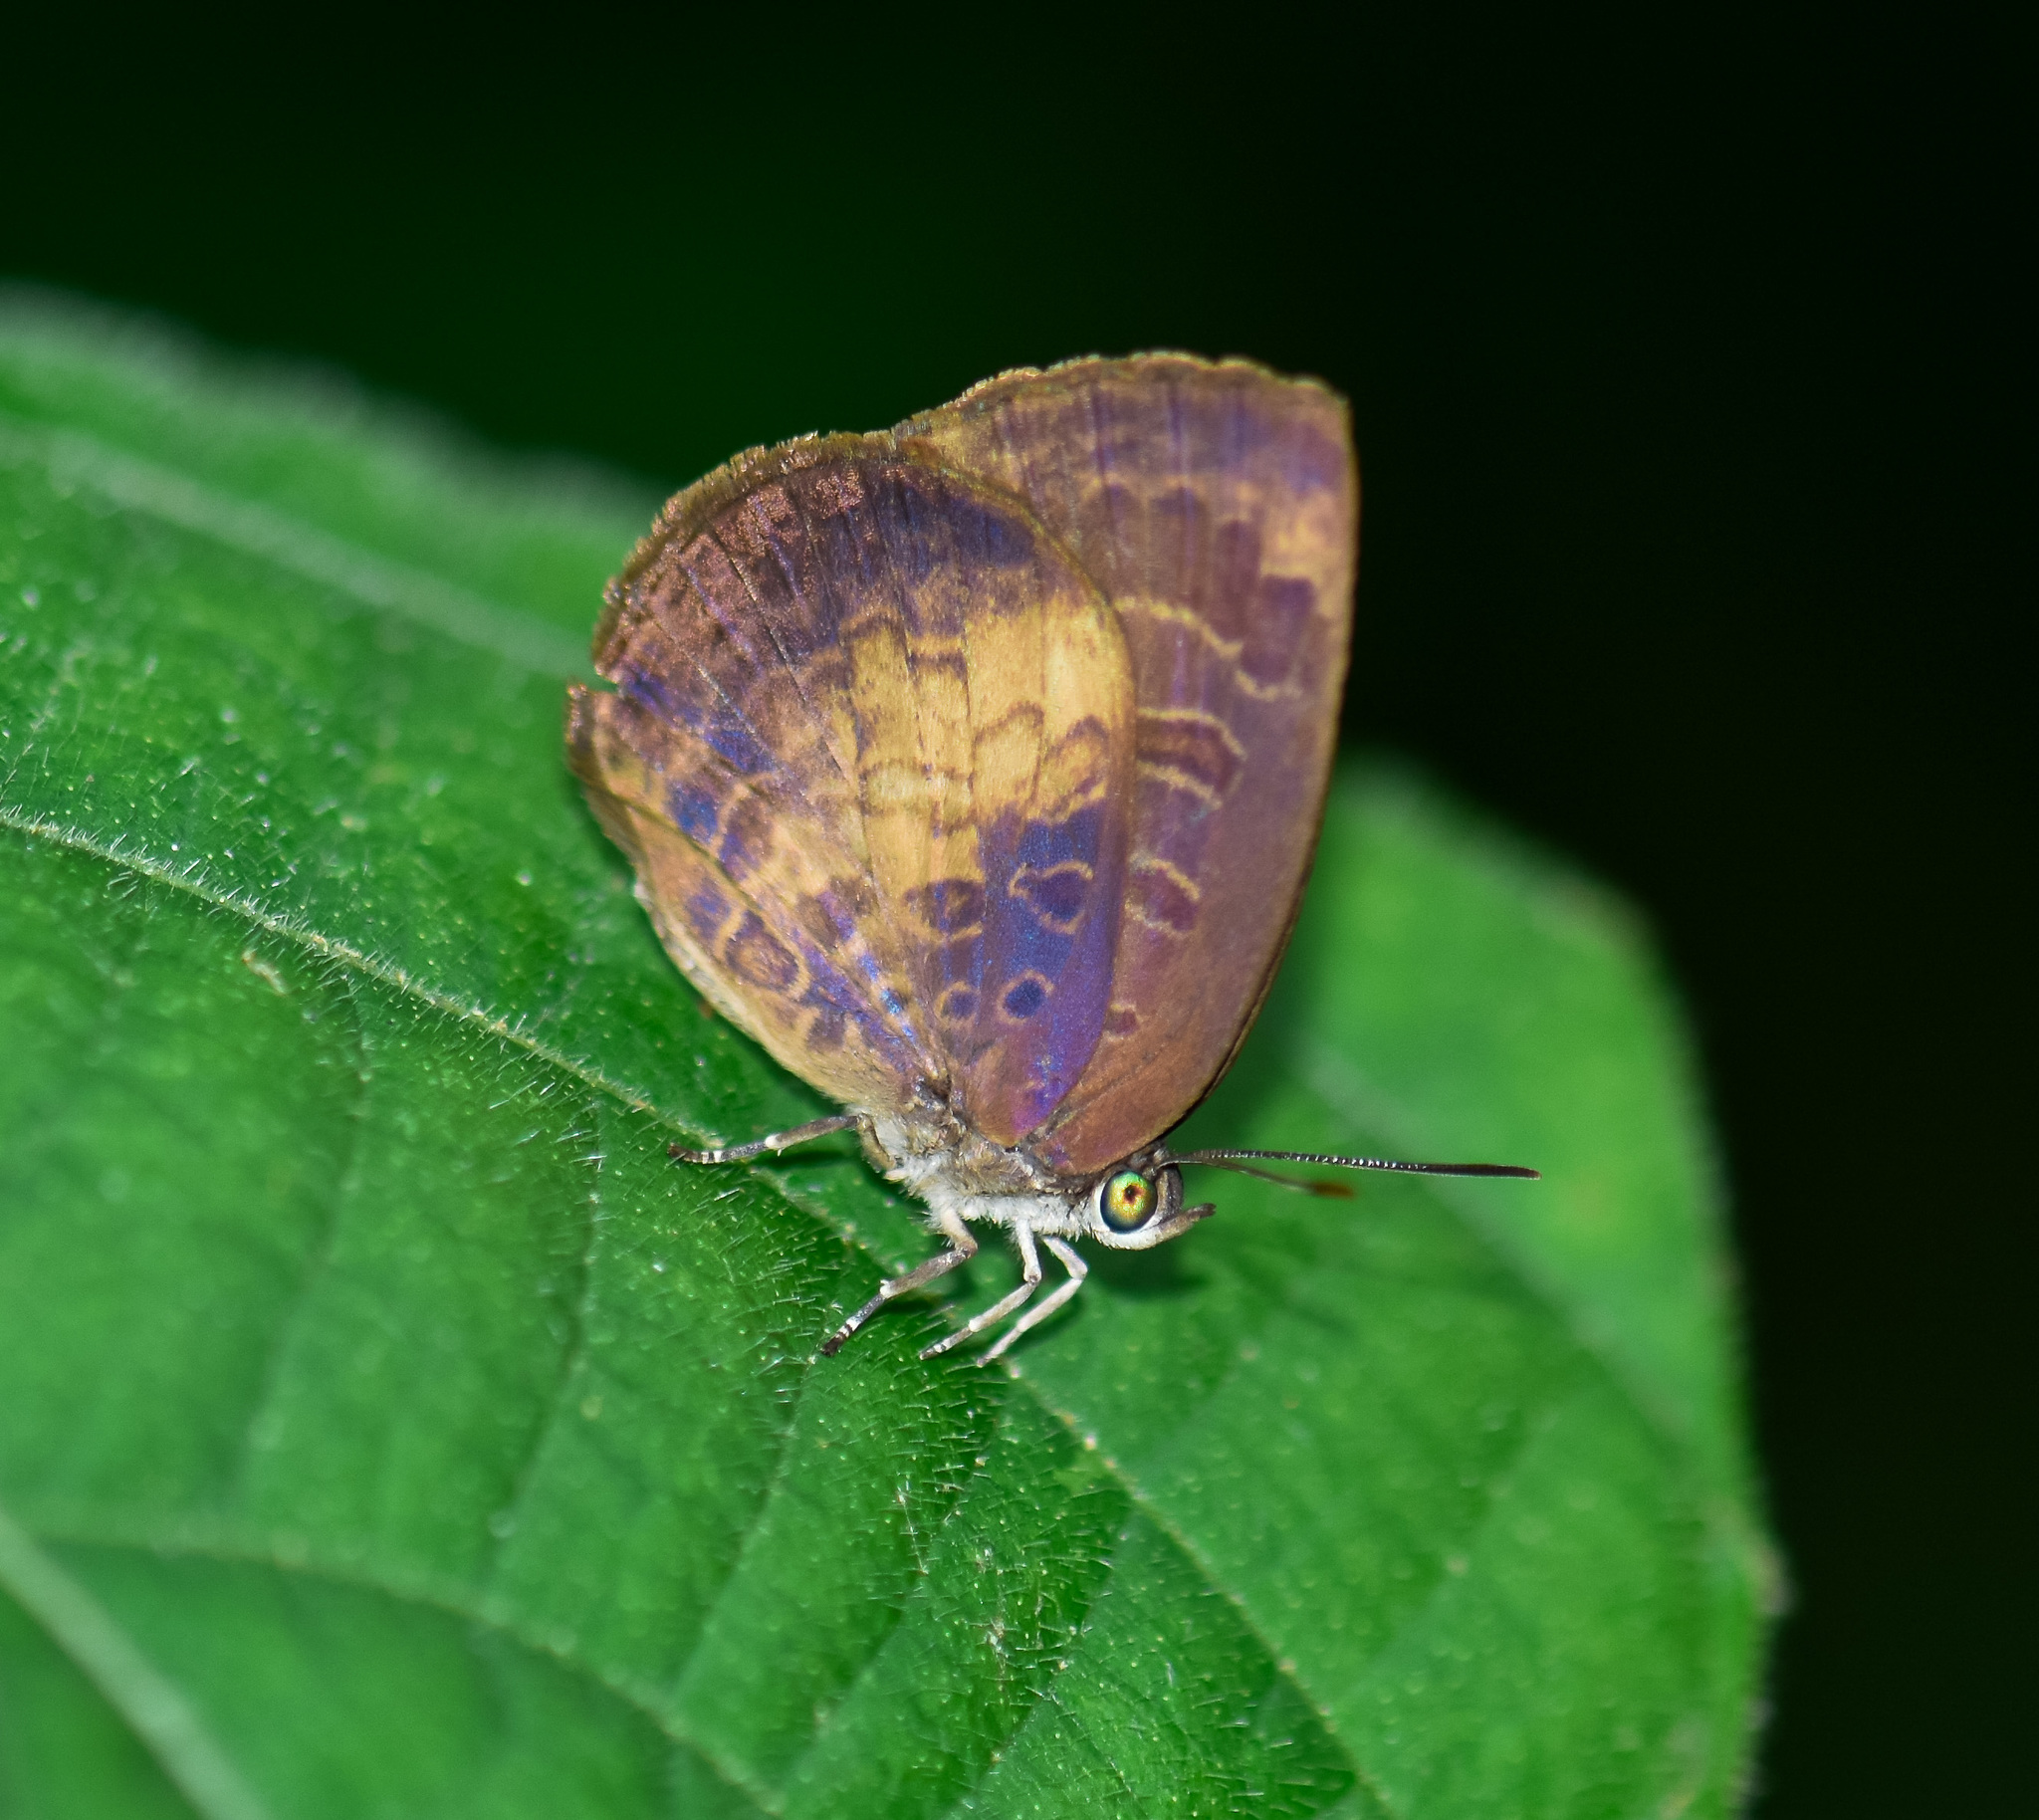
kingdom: Animalia
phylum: Arthropoda
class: Insecta
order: Lepidoptera
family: Lycaenidae
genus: Arhopala
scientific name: Arhopala perimuta
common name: Yellowdisc oakblue
